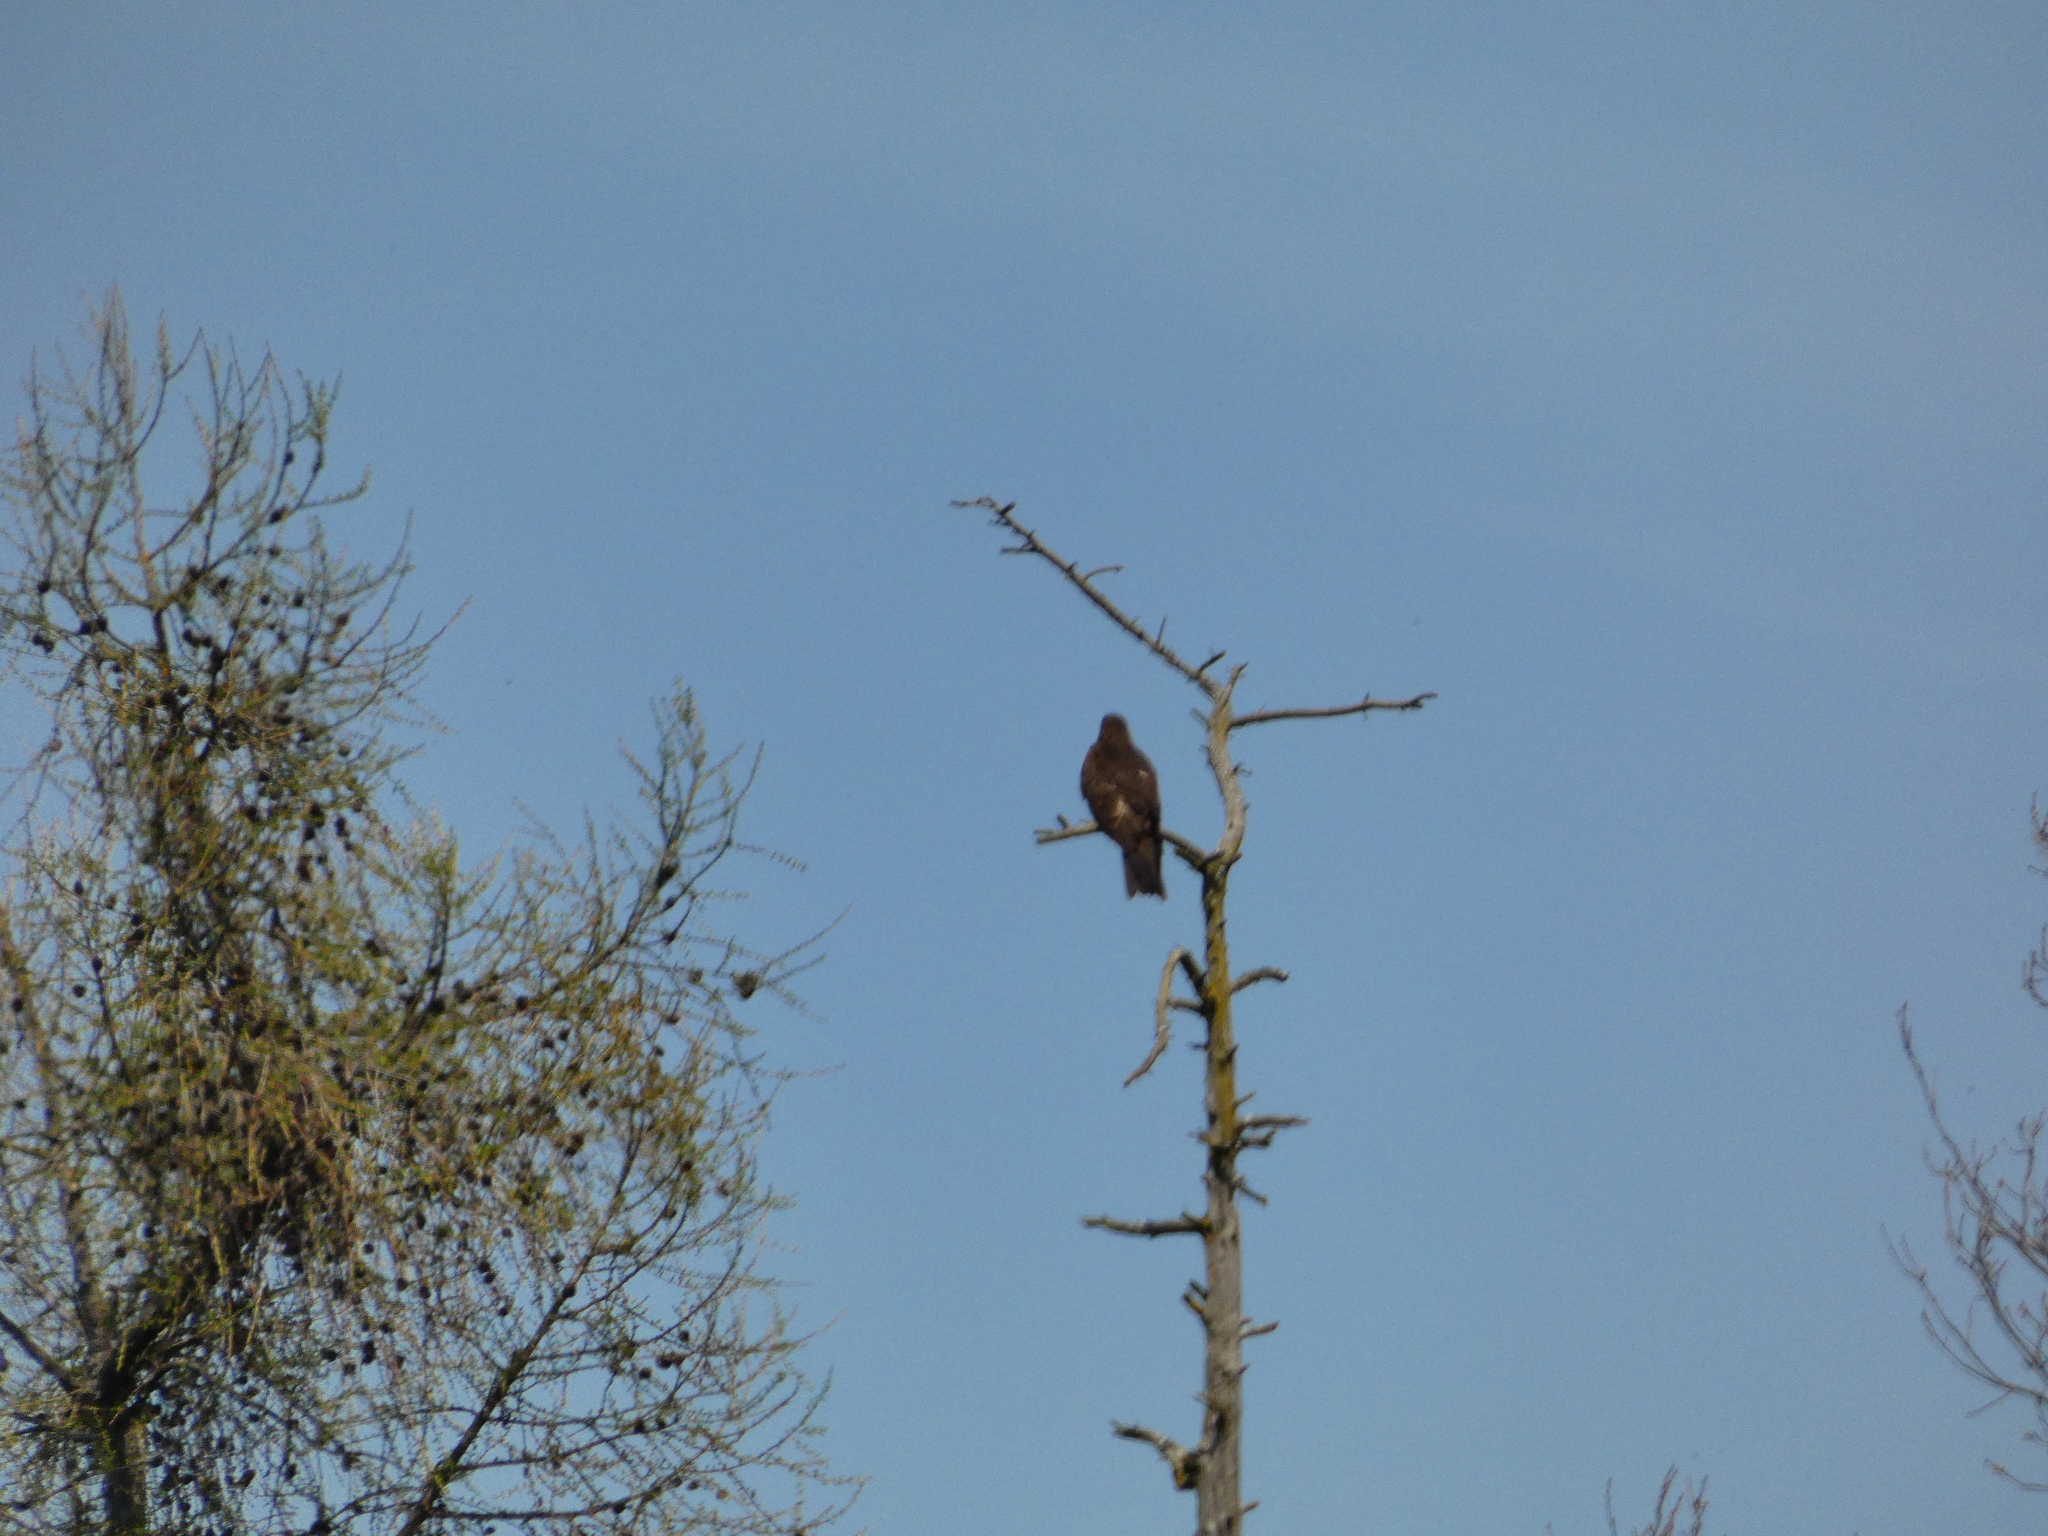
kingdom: Animalia
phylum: Chordata
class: Aves
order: Accipitriformes
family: Accipitridae
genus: Milvus
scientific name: Milvus migrans
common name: Black kite
